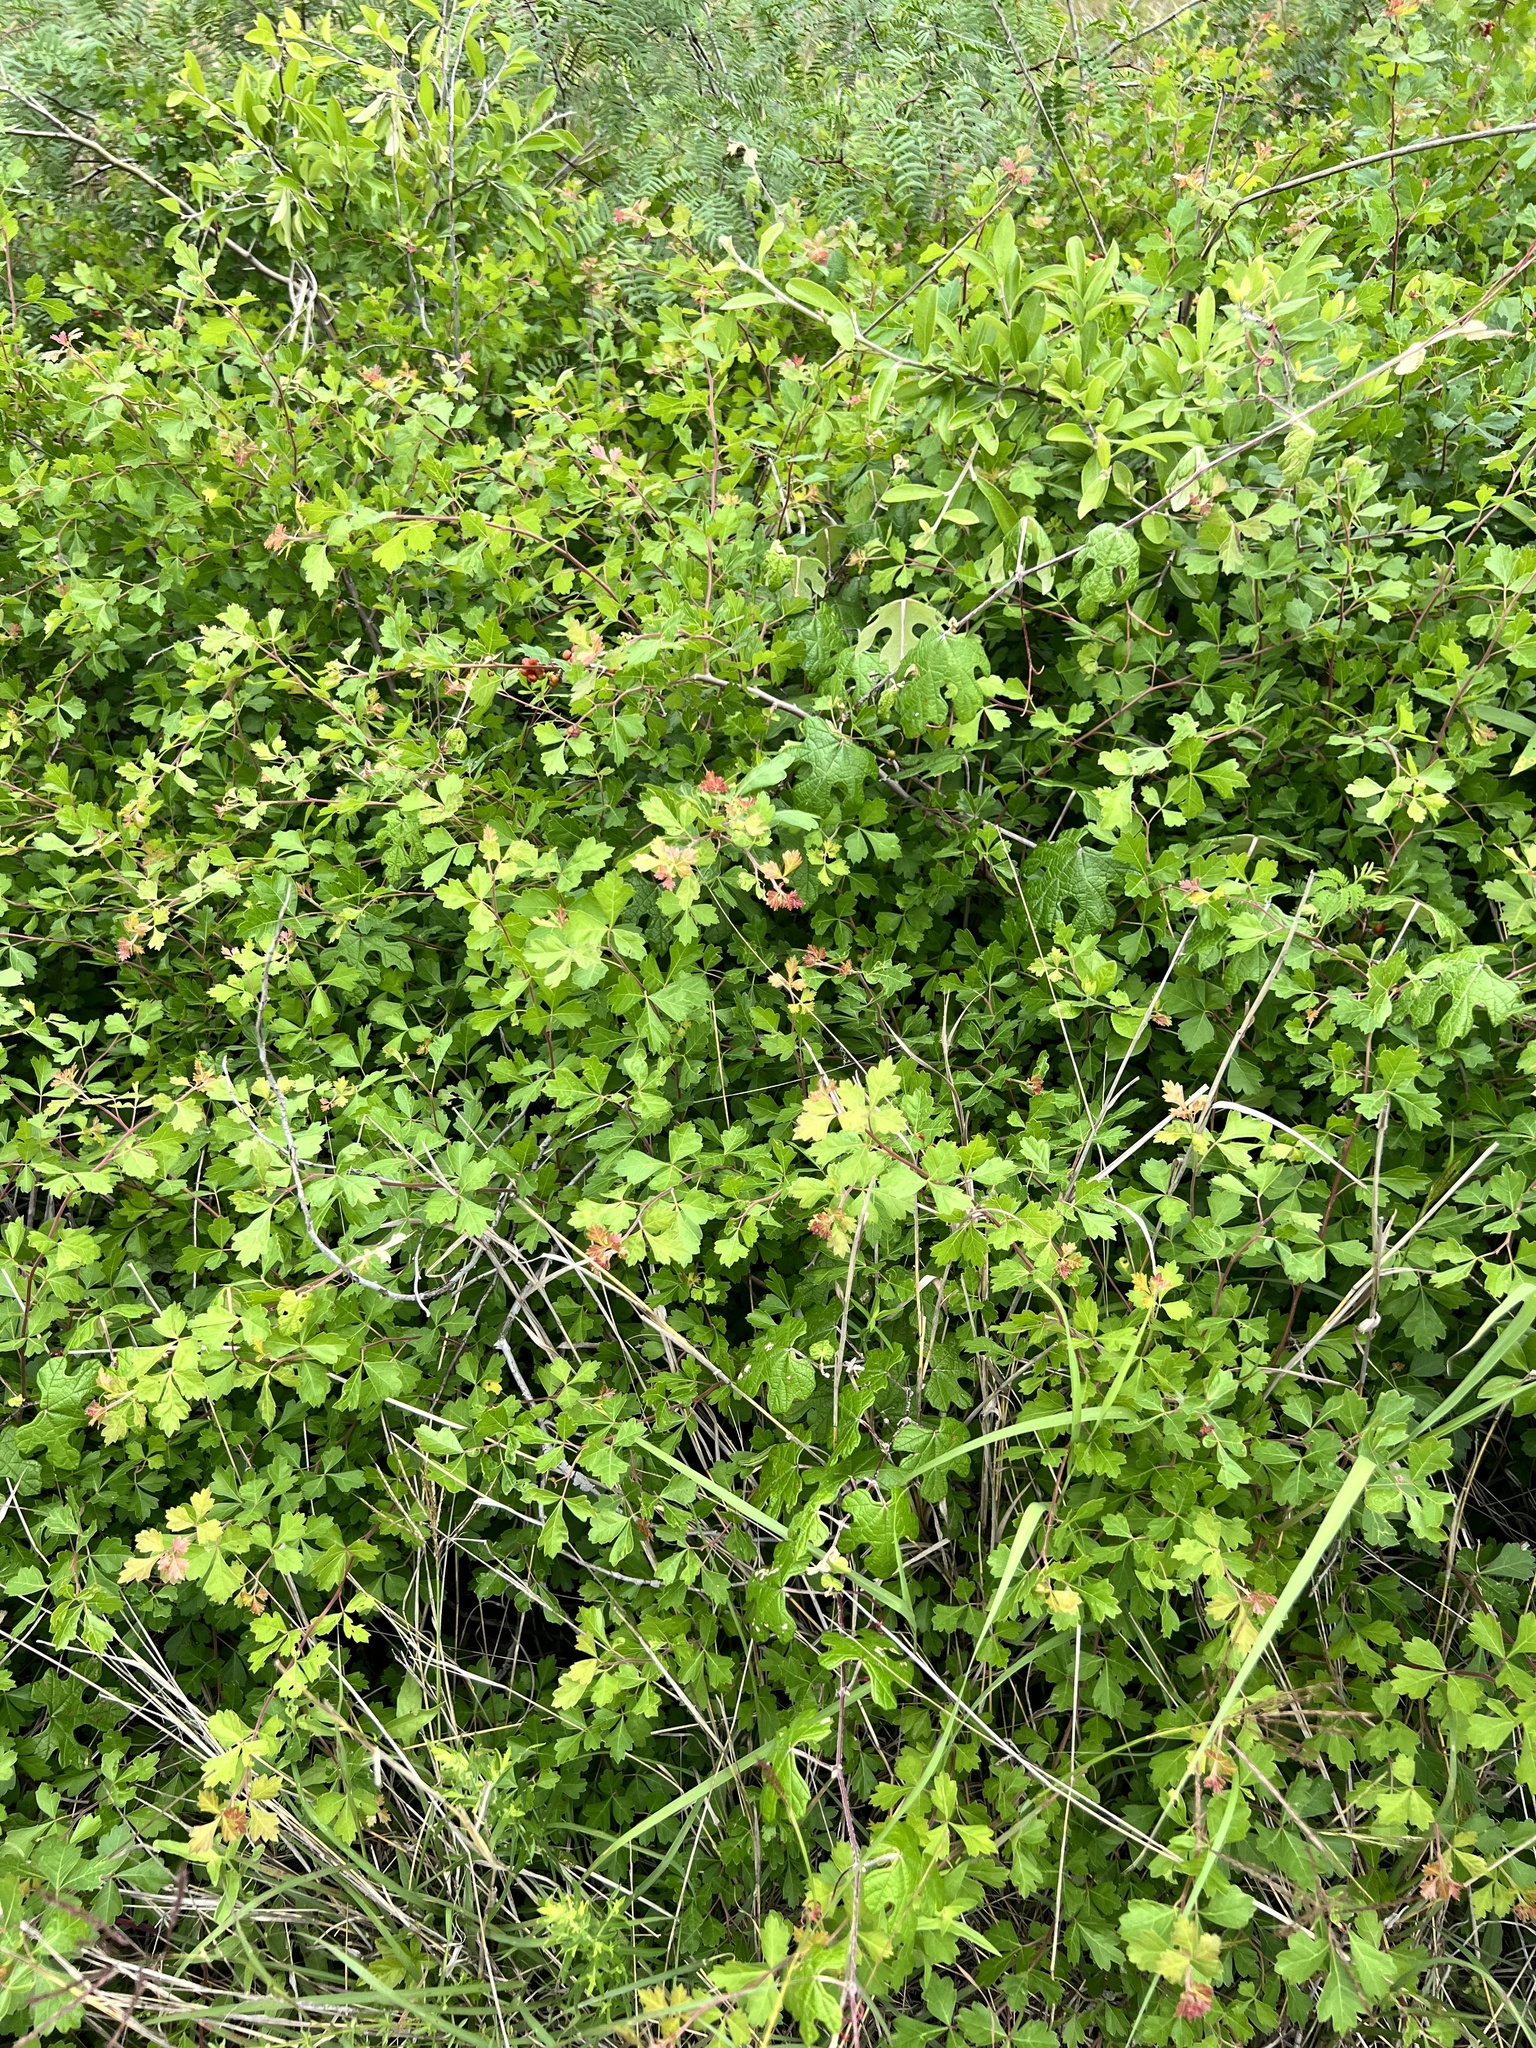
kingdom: Plantae
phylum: Tracheophyta
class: Magnoliopsida
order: Sapindales
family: Anacardiaceae
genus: Rhus
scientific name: Rhus aromatica
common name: Aromatic sumac
